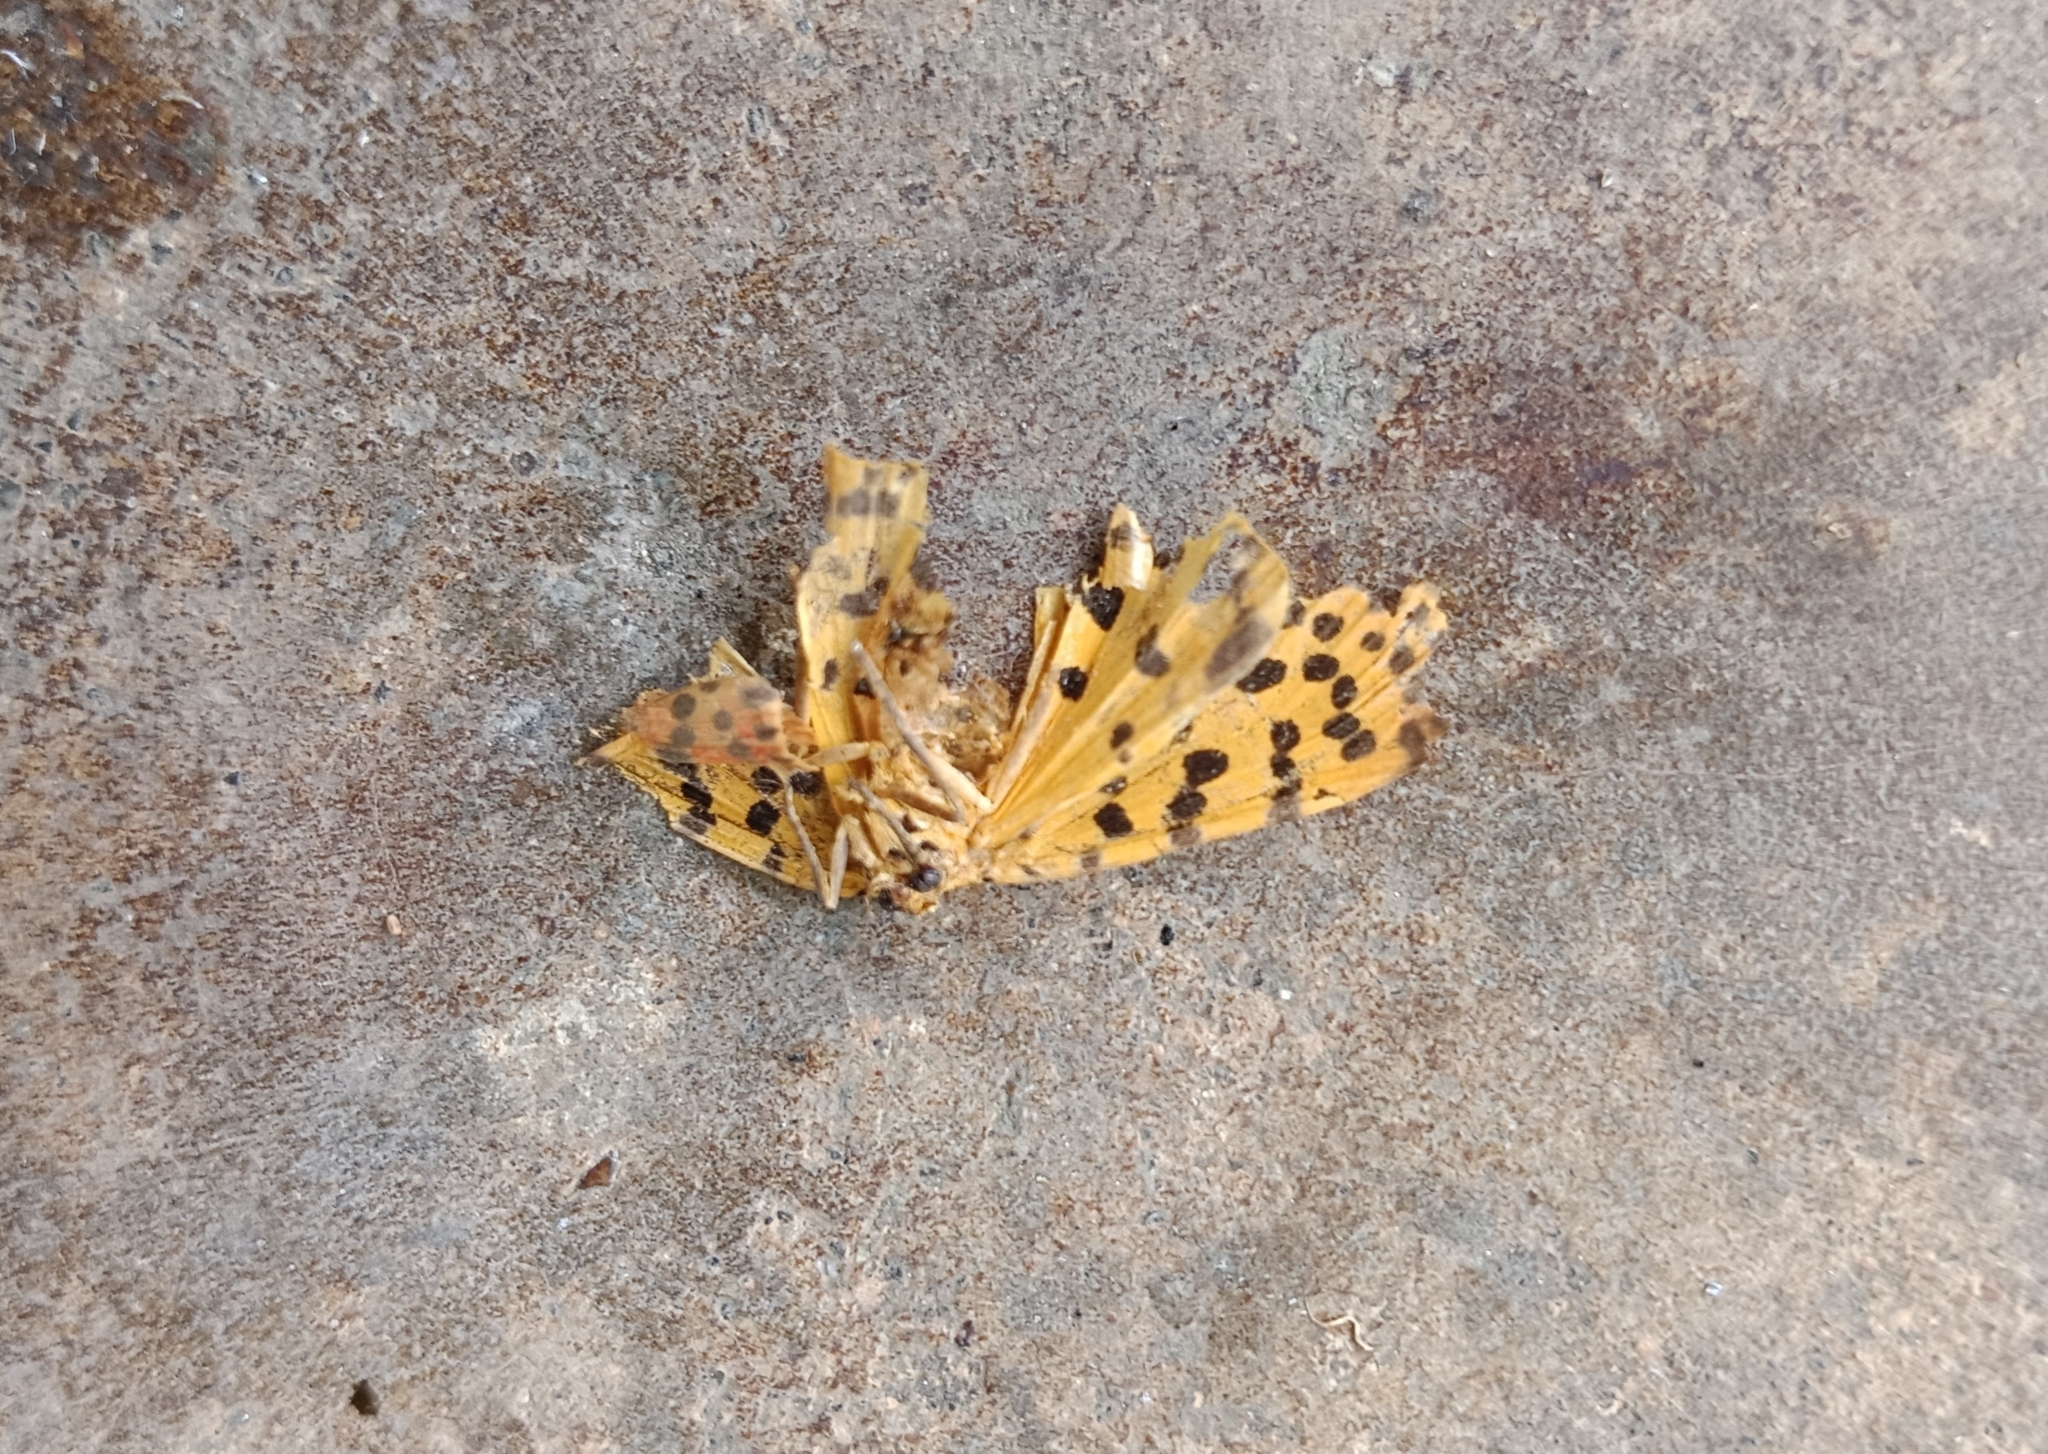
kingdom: Animalia
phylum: Arthropoda
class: Insecta
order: Lepidoptera
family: Erebidae
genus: Argina
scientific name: Argina astrea
